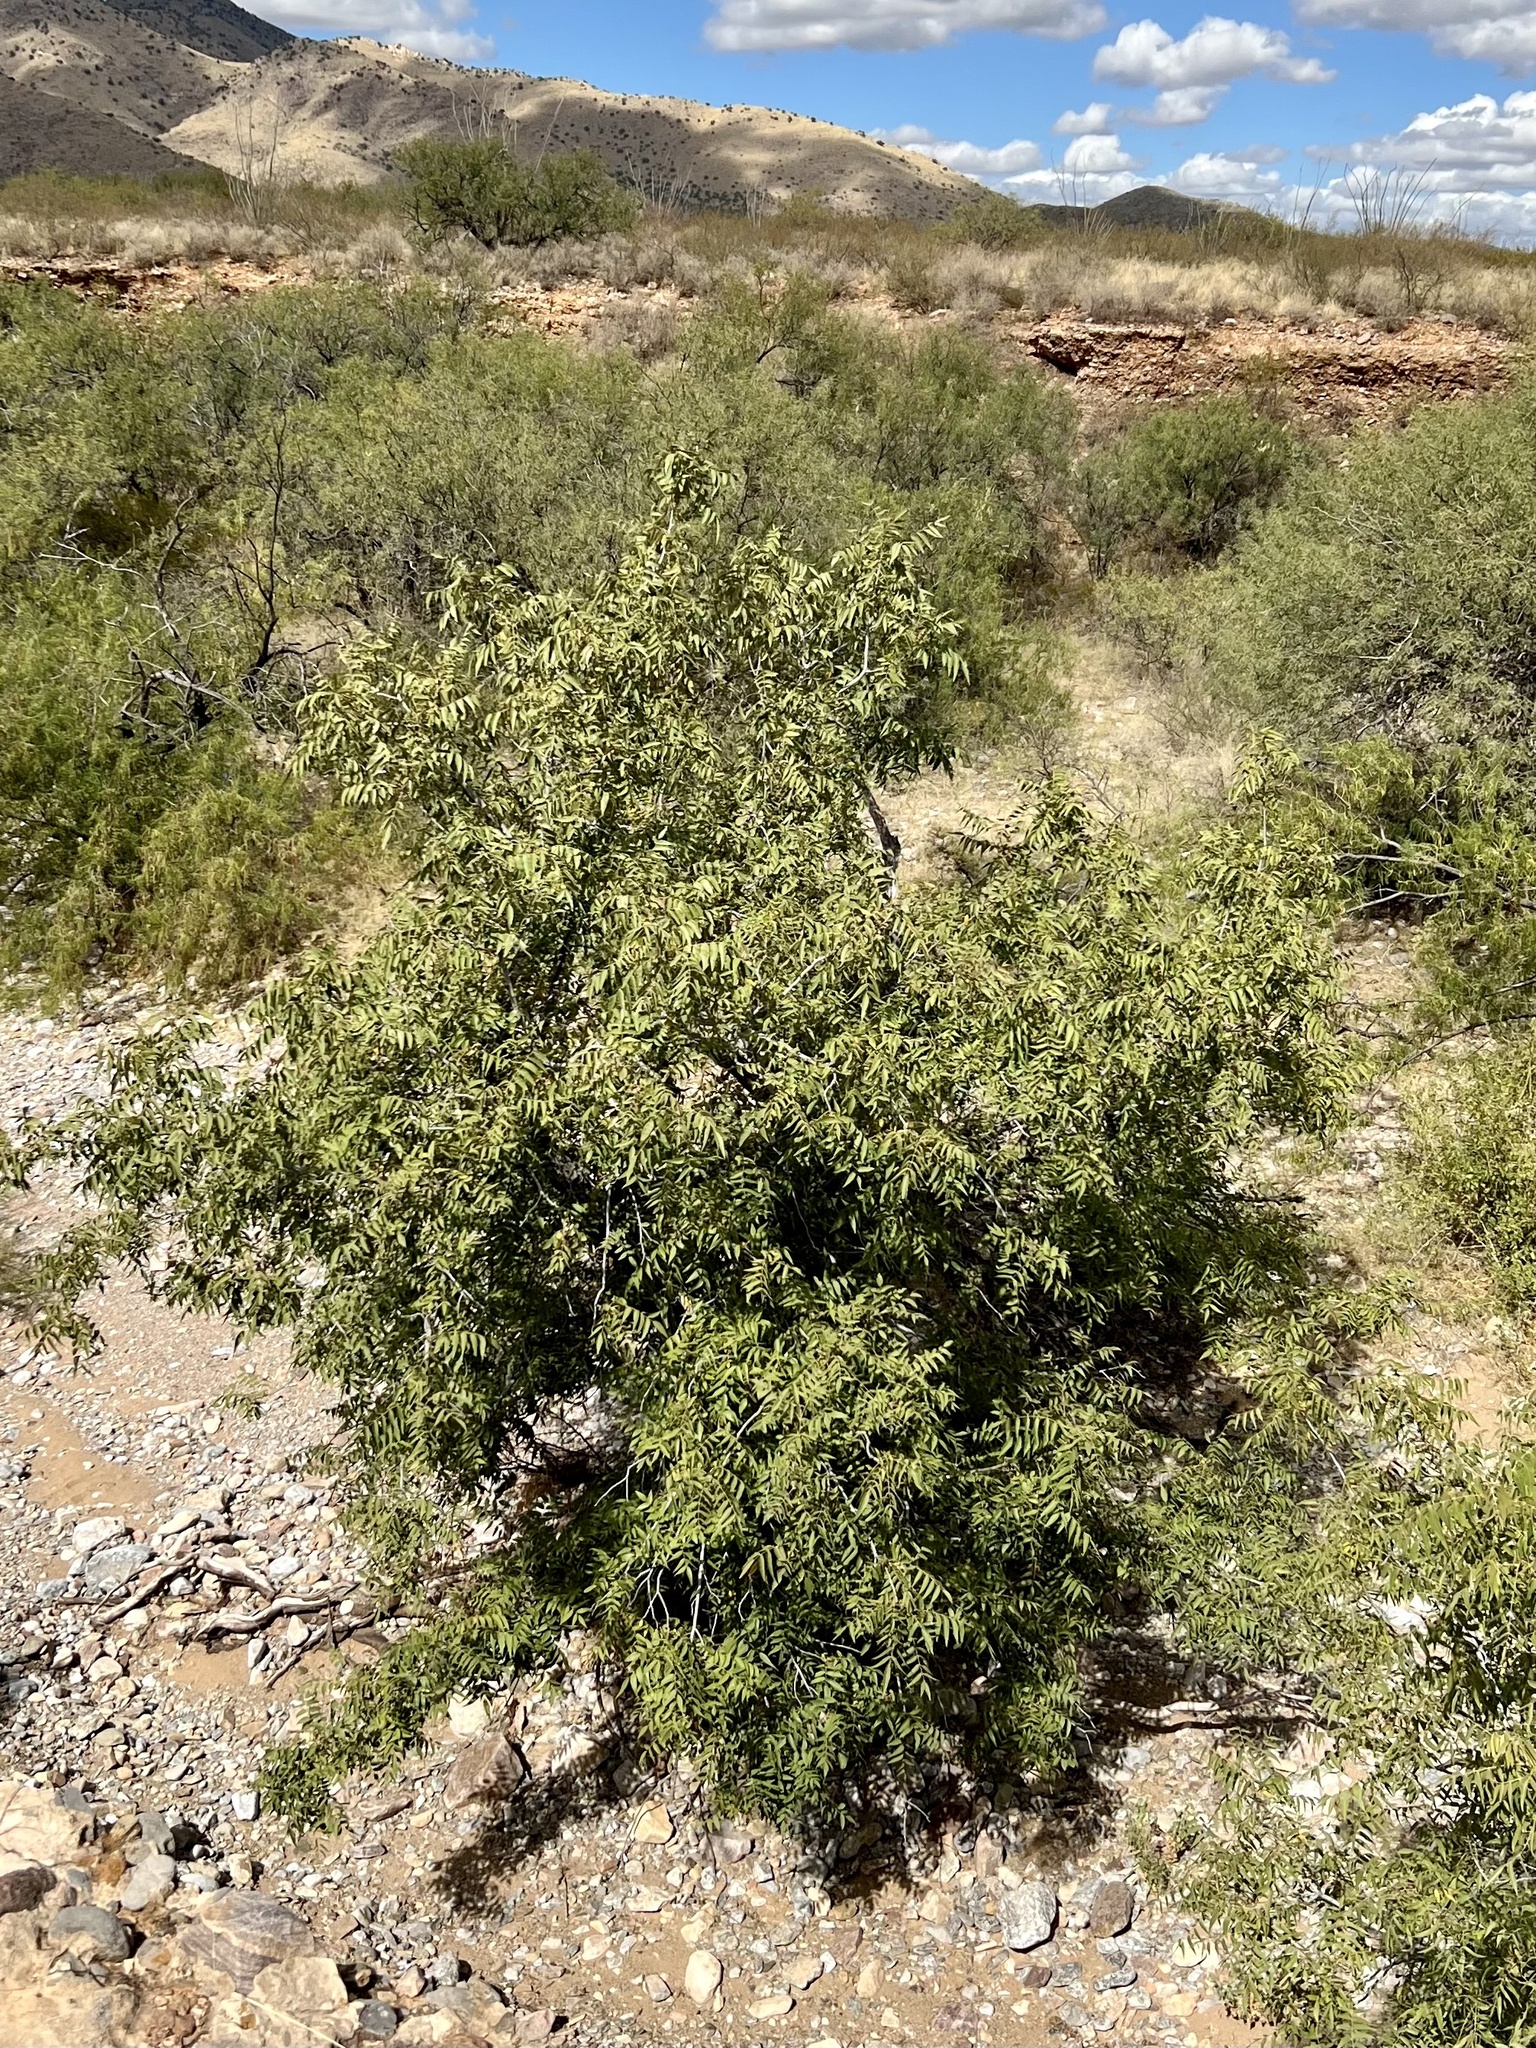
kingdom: Plantae
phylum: Tracheophyta
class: Magnoliopsida
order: Fagales
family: Juglandaceae
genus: Juglans
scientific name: Juglans major
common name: Arizona walnut
